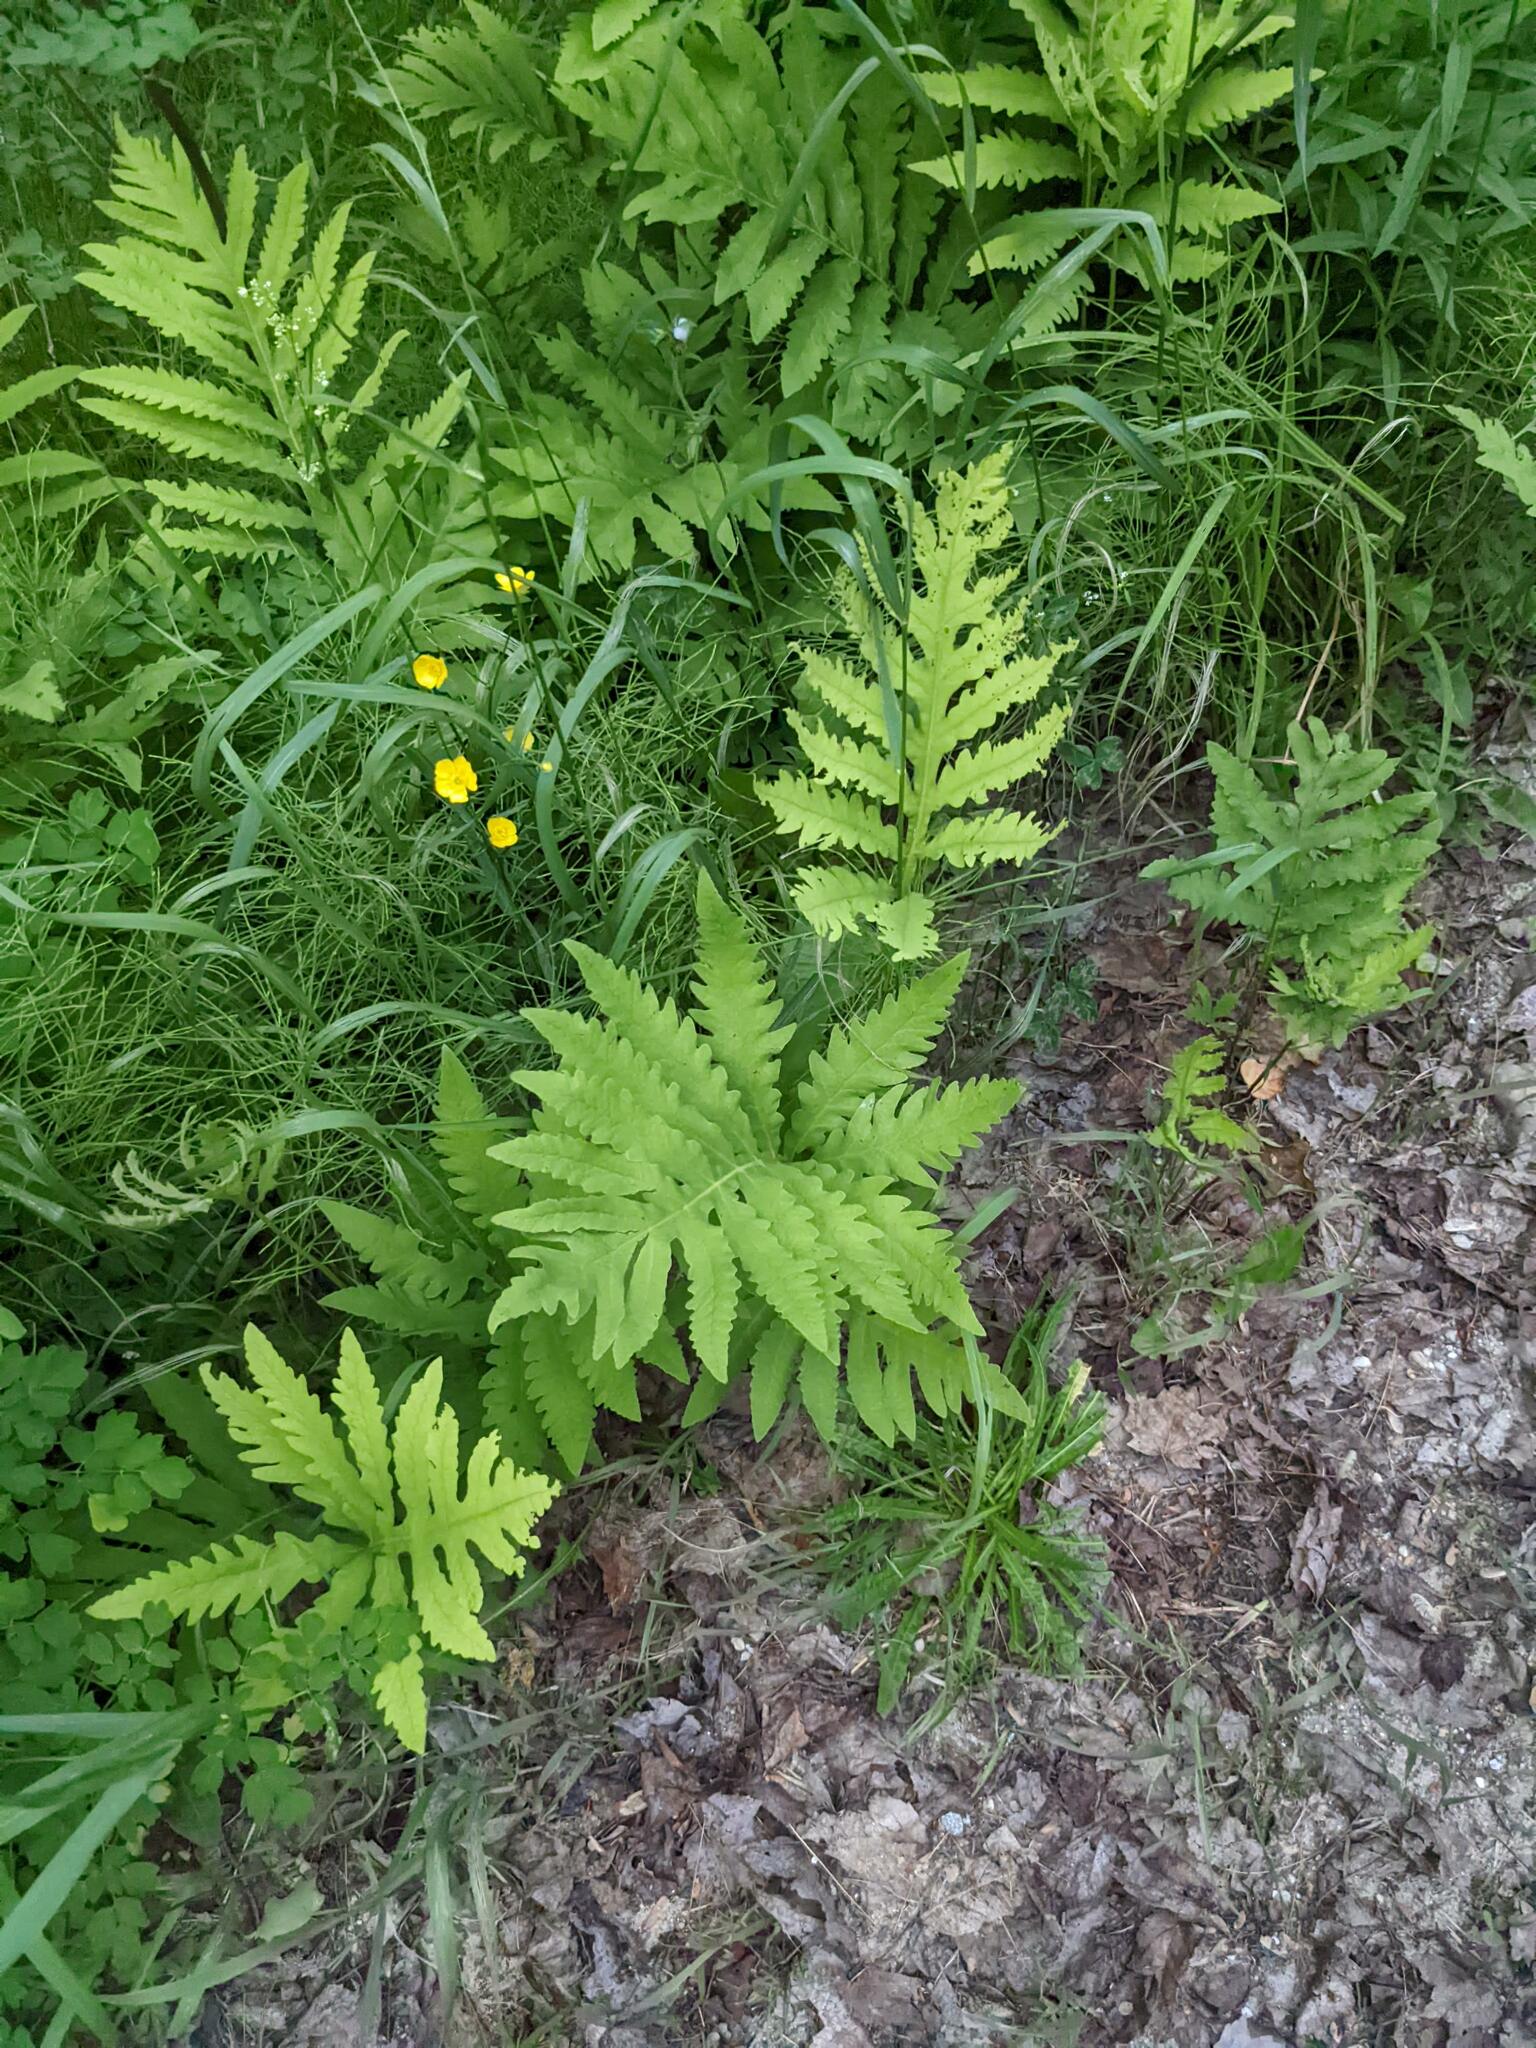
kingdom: Plantae
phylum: Tracheophyta
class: Polypodiopsida
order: Polypodiales
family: Onocleaceae
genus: Onoclea
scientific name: Onoclea sensibilis
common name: Sensitive fern
